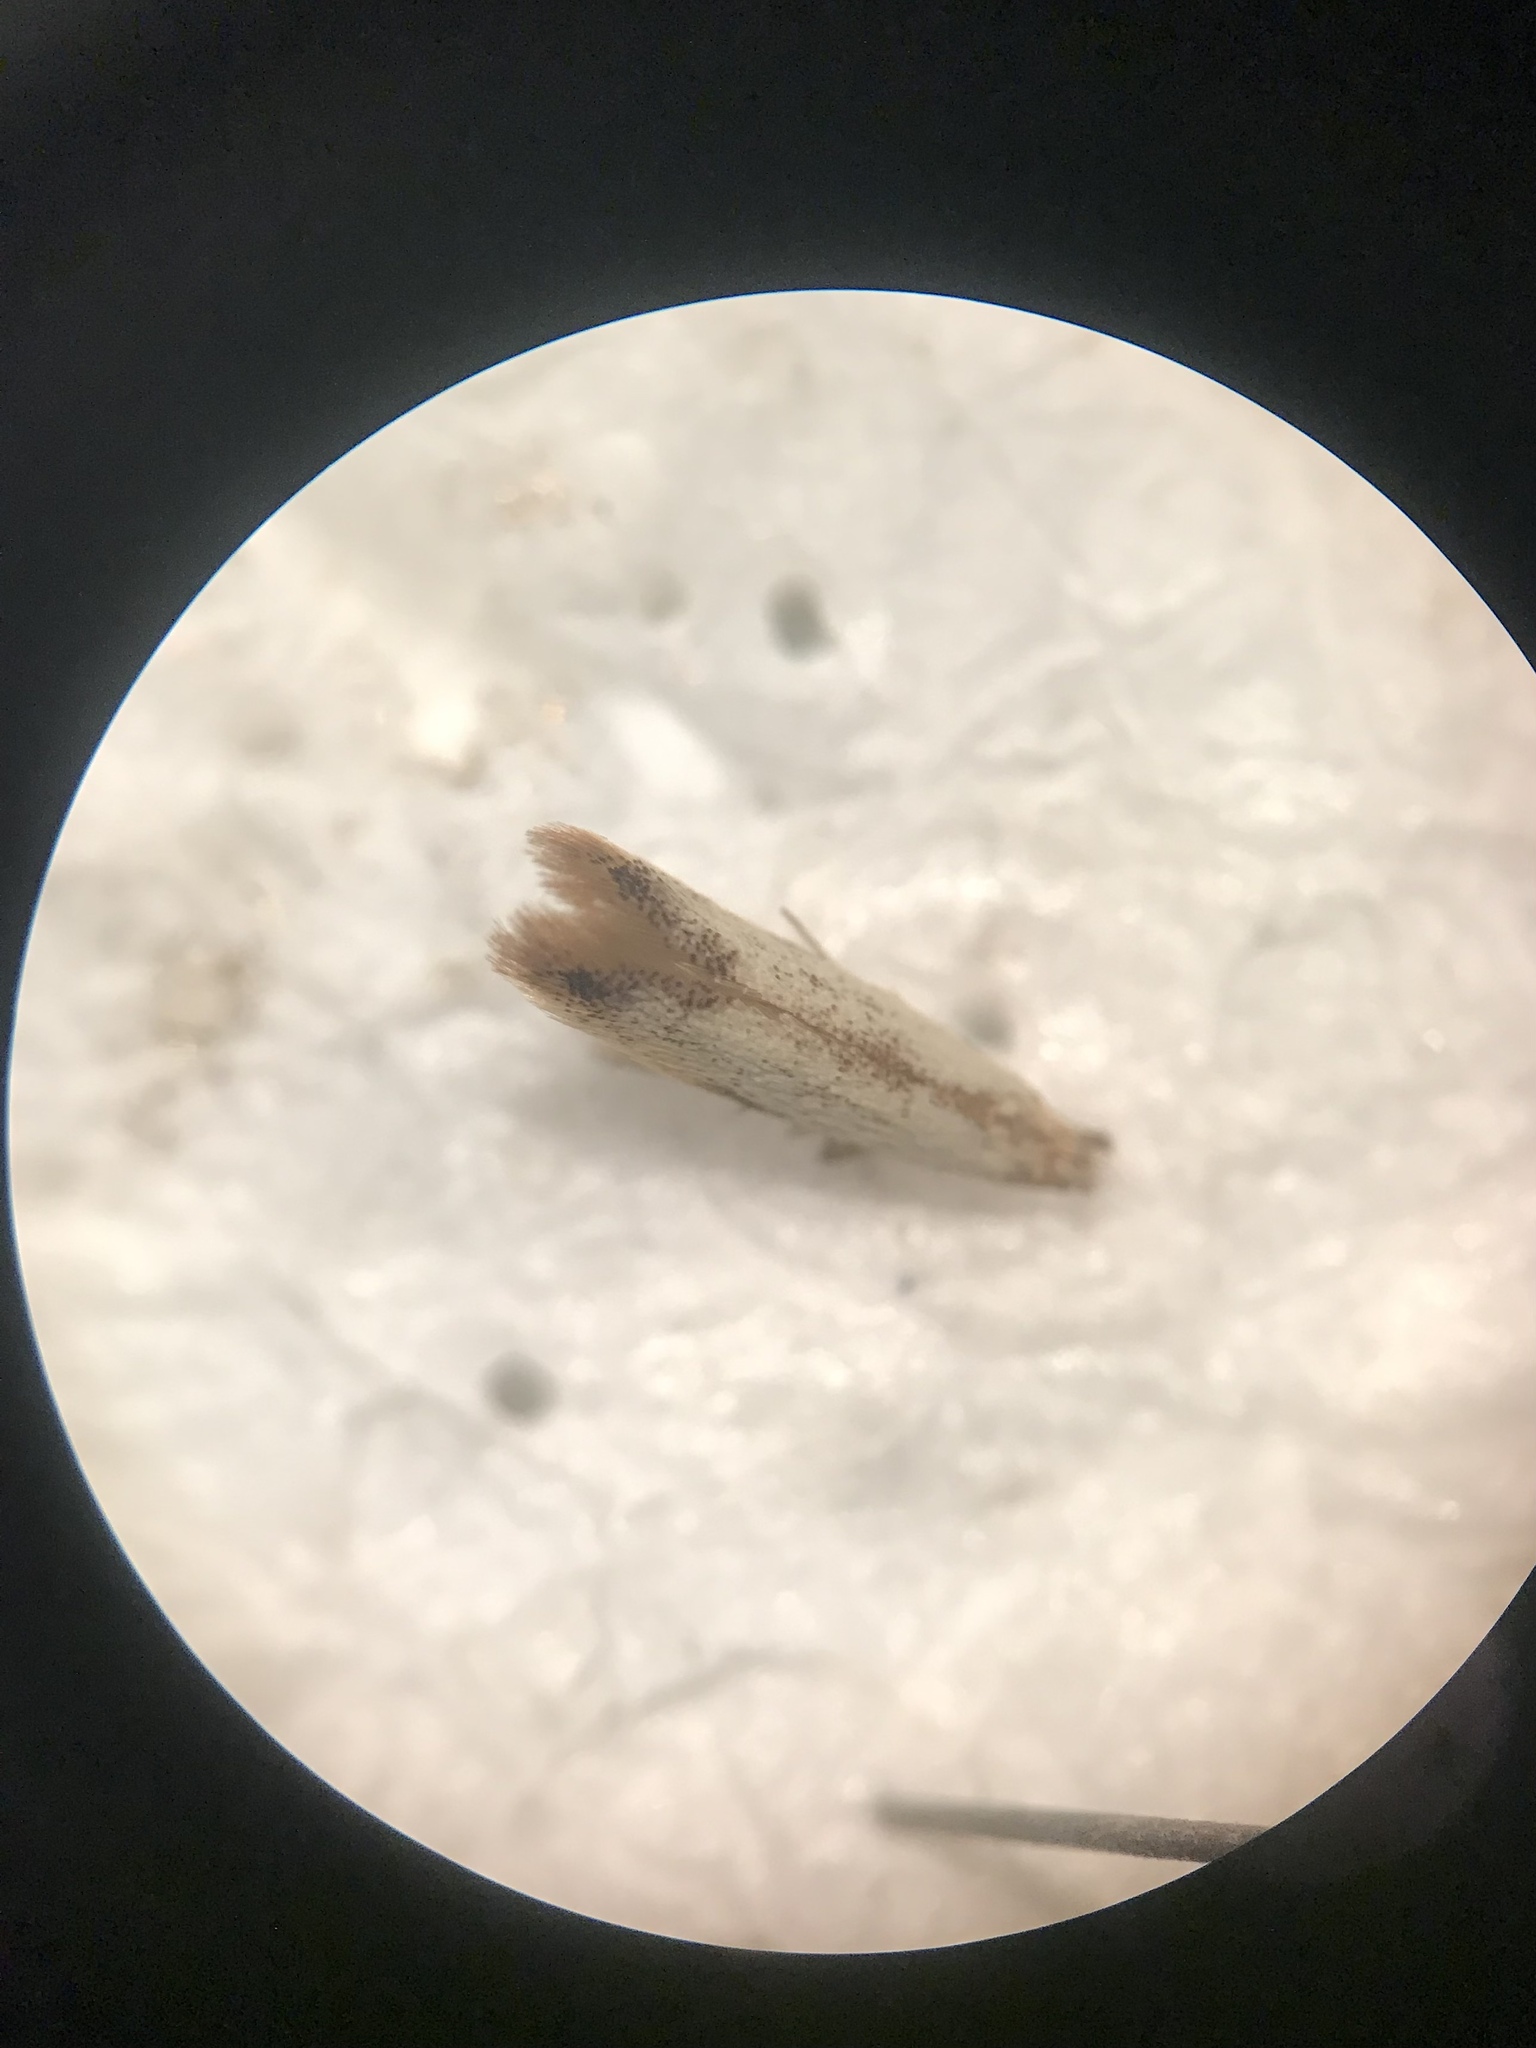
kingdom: Animalia
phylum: Arthropoda
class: Insecta
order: Lepidoptera
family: Tischeriidae
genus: Coptotriche
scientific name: Coptotriche purinosella
